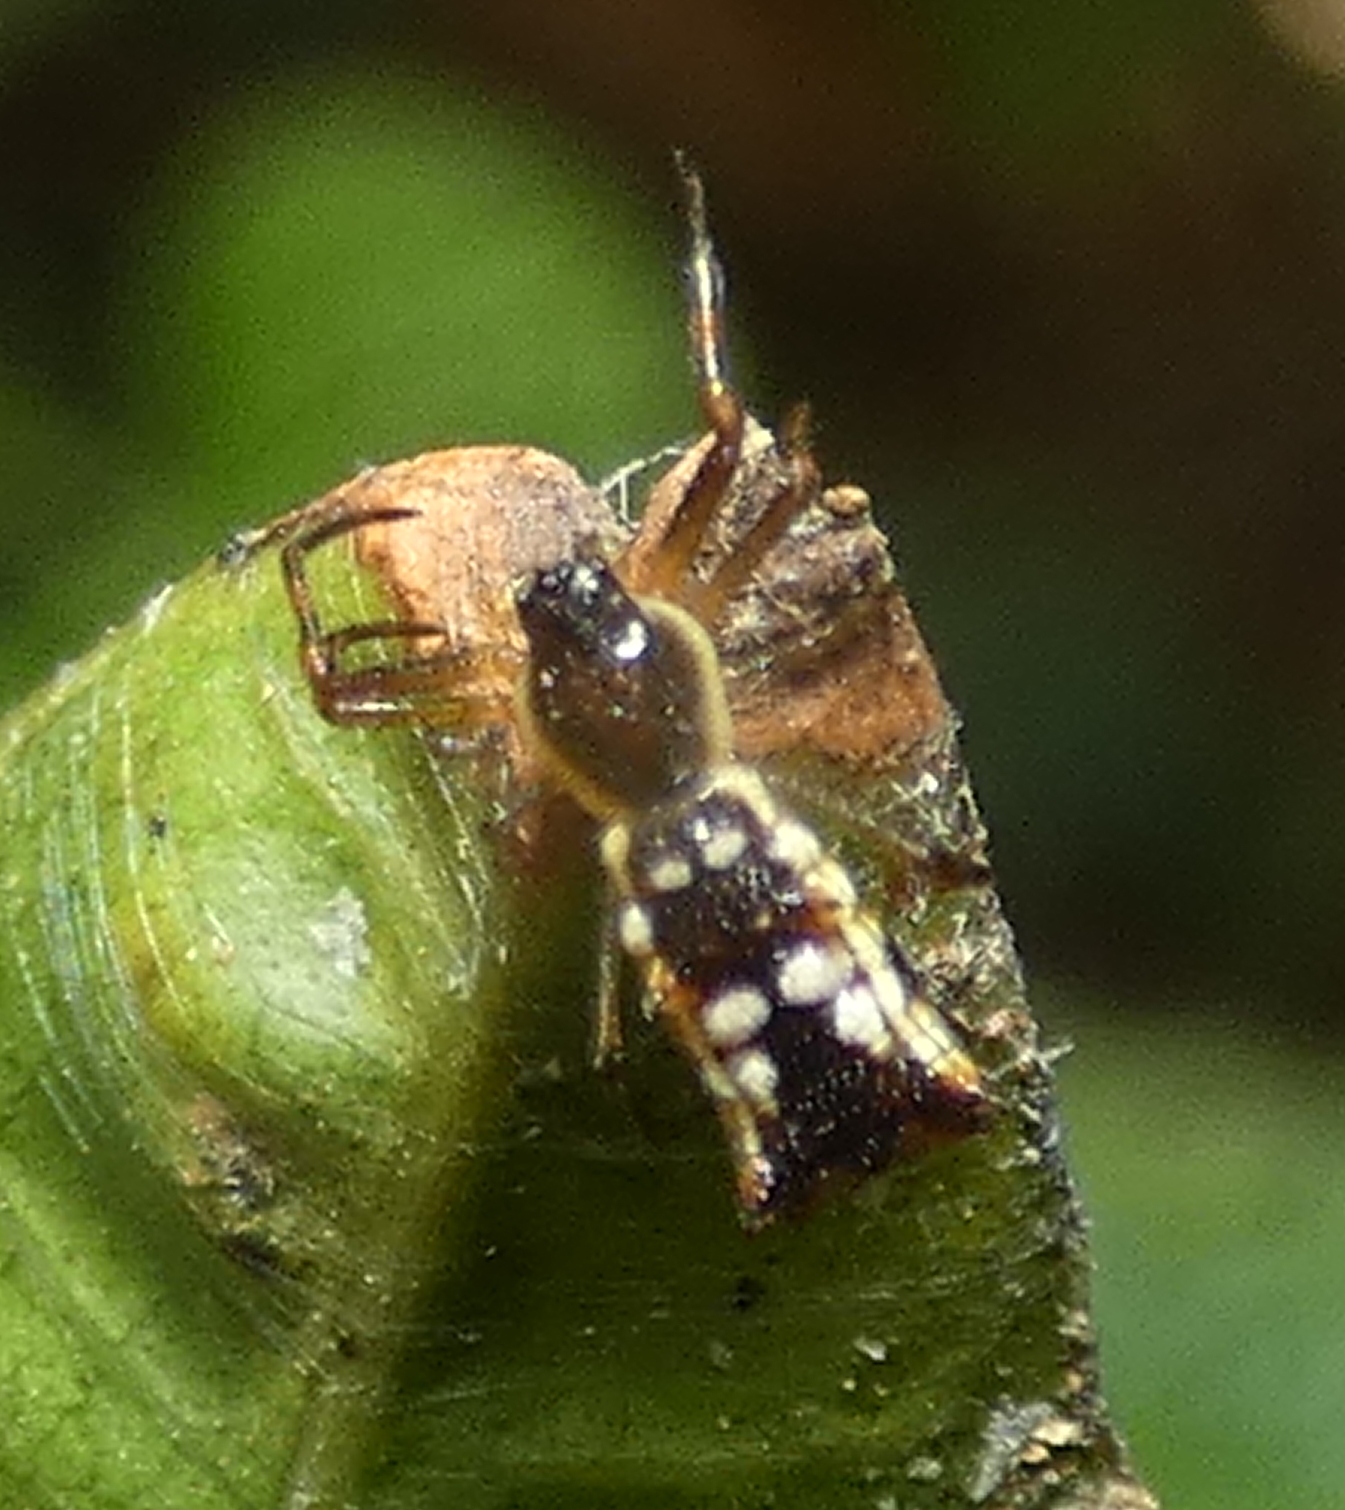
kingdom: Animalia
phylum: Arthropoda
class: Arachnida
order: Araneae
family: Araneidae
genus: Micrathena
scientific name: Micrathena fissispina
